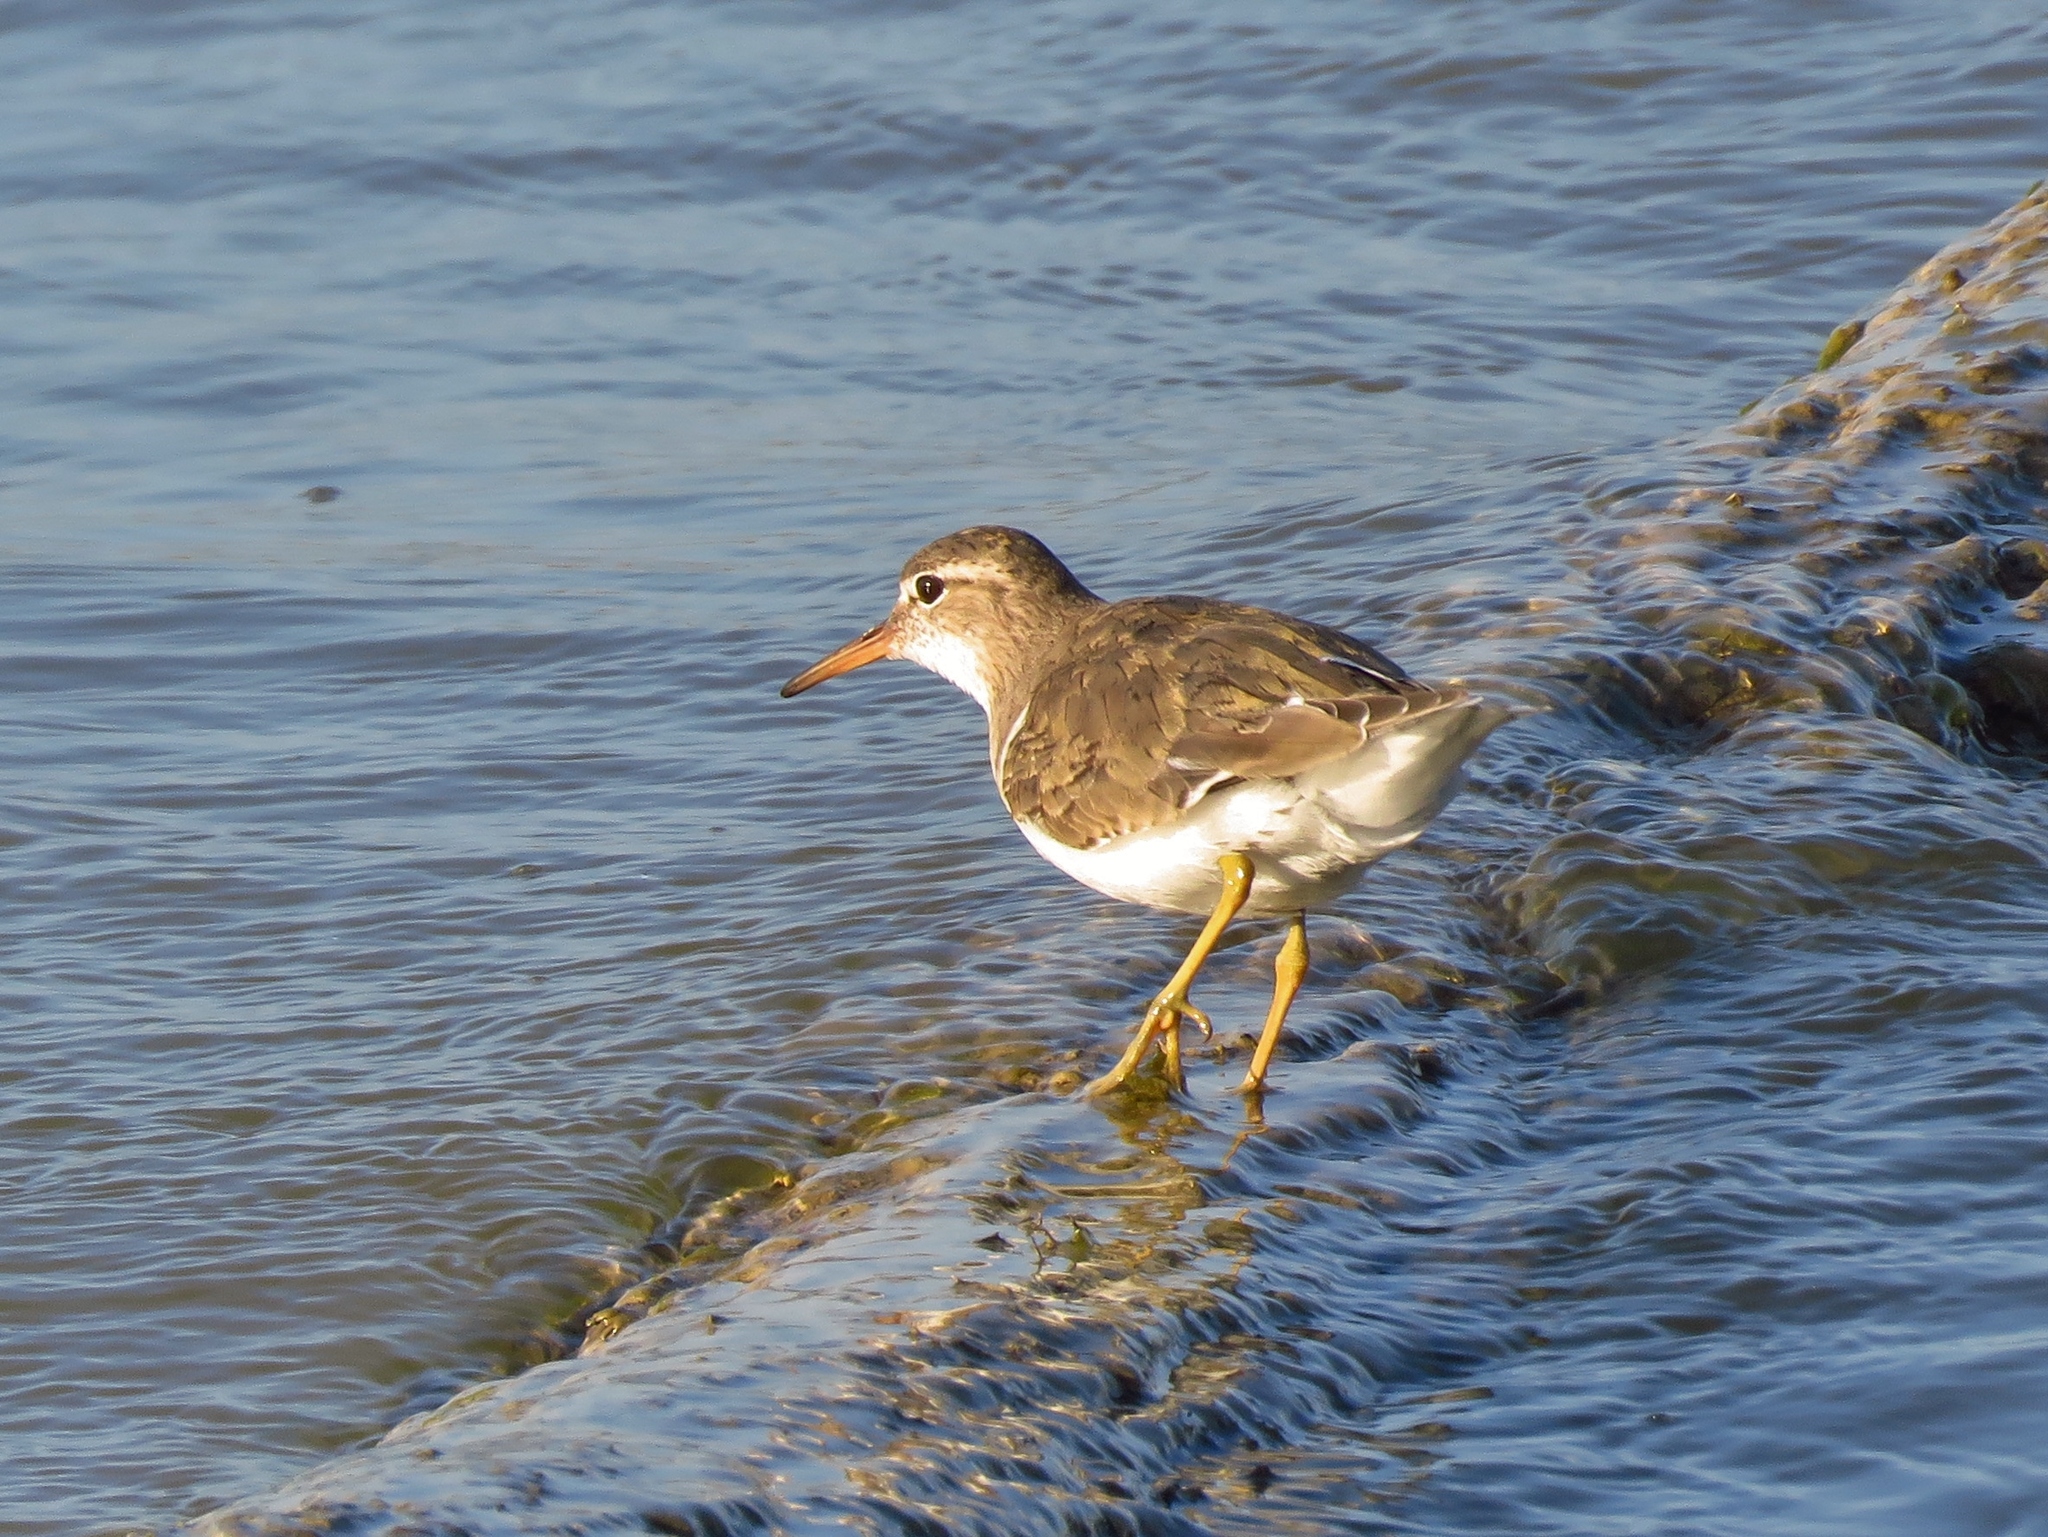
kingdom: Animalia
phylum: Chordata
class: Aves
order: Charadriiformes
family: Scolopacidae
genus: Actitis
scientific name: Actitis macularius
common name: Spotted sandpiper
